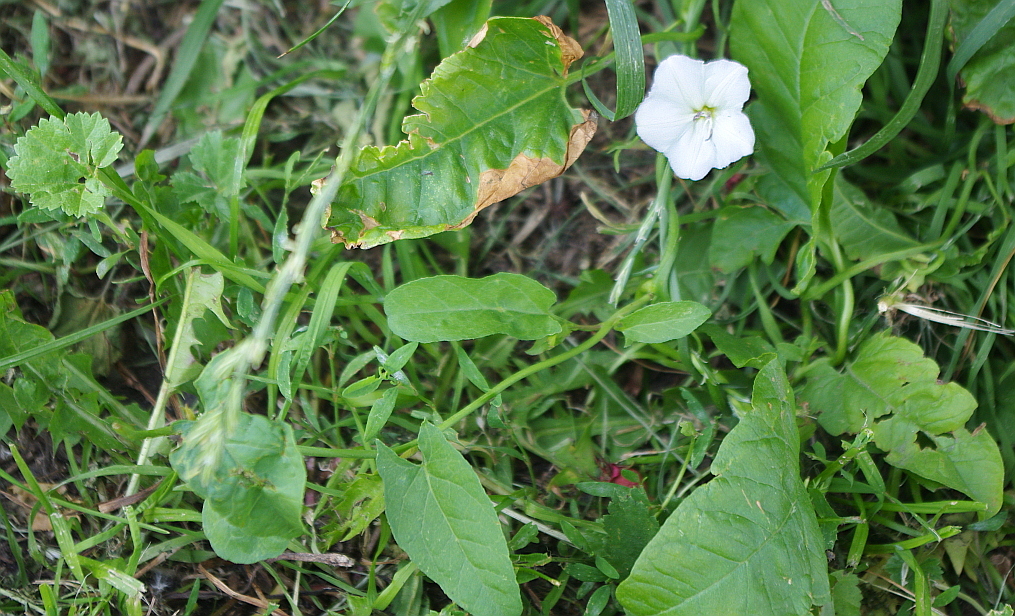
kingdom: Plantae
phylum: Tracheophyta
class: Magnoliopsida
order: Solanales
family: Convolvulaceae
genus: Convolvulus
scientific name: Convolvulus arvensis
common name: Field bindweed
